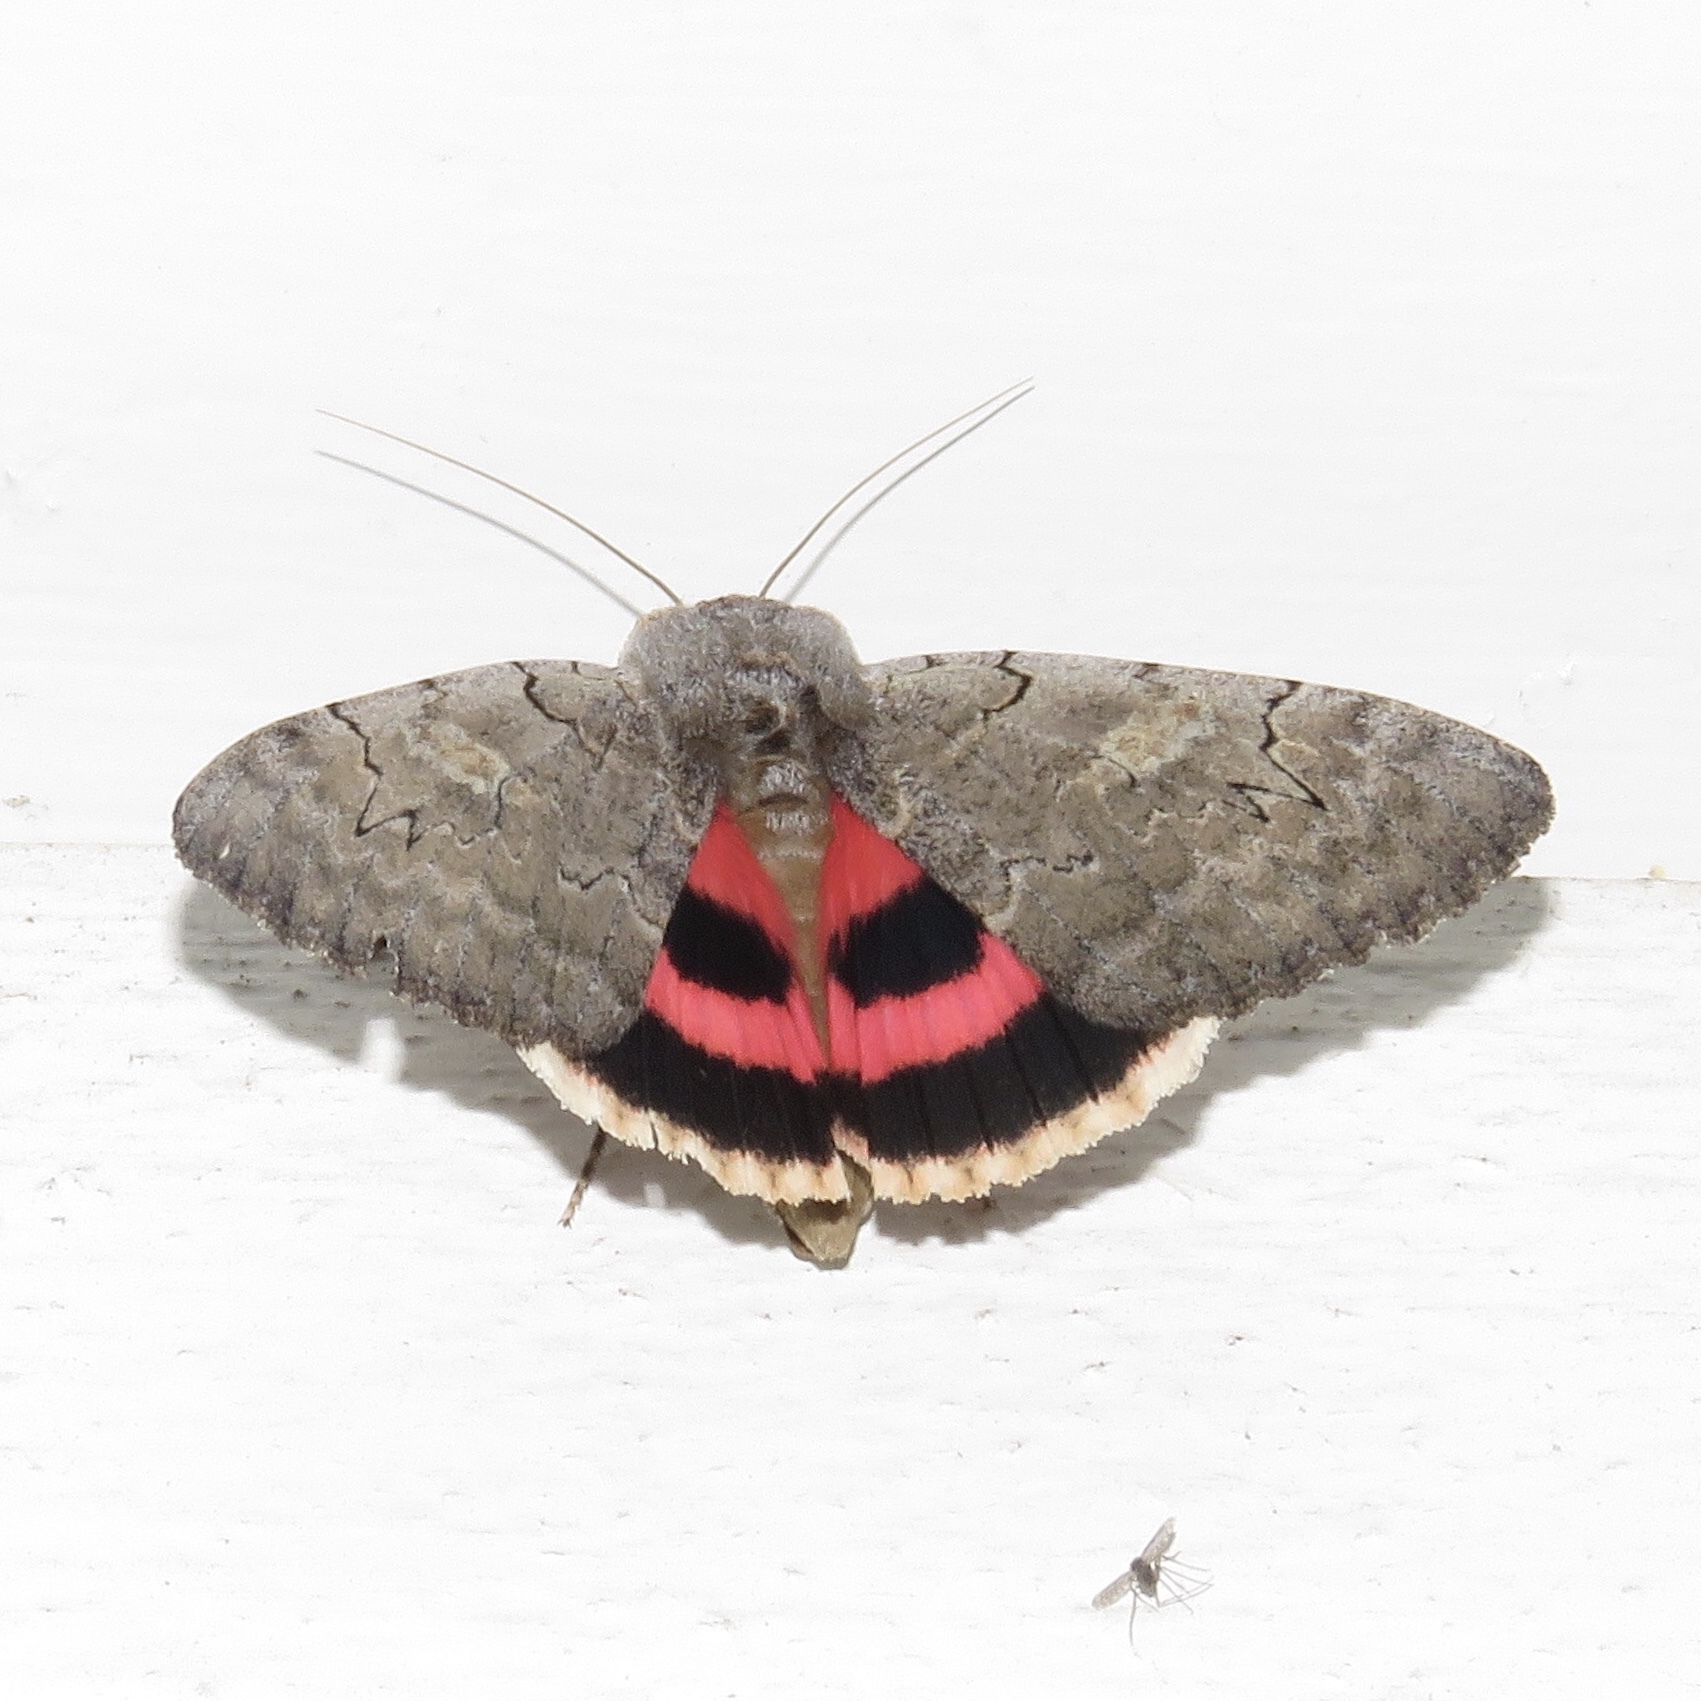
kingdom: Animalia
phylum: Arthropoda
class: Insecta
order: Lepidoptera
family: Erebidae
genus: Catocala
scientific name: Catocala concumbens
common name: Pink underwing
